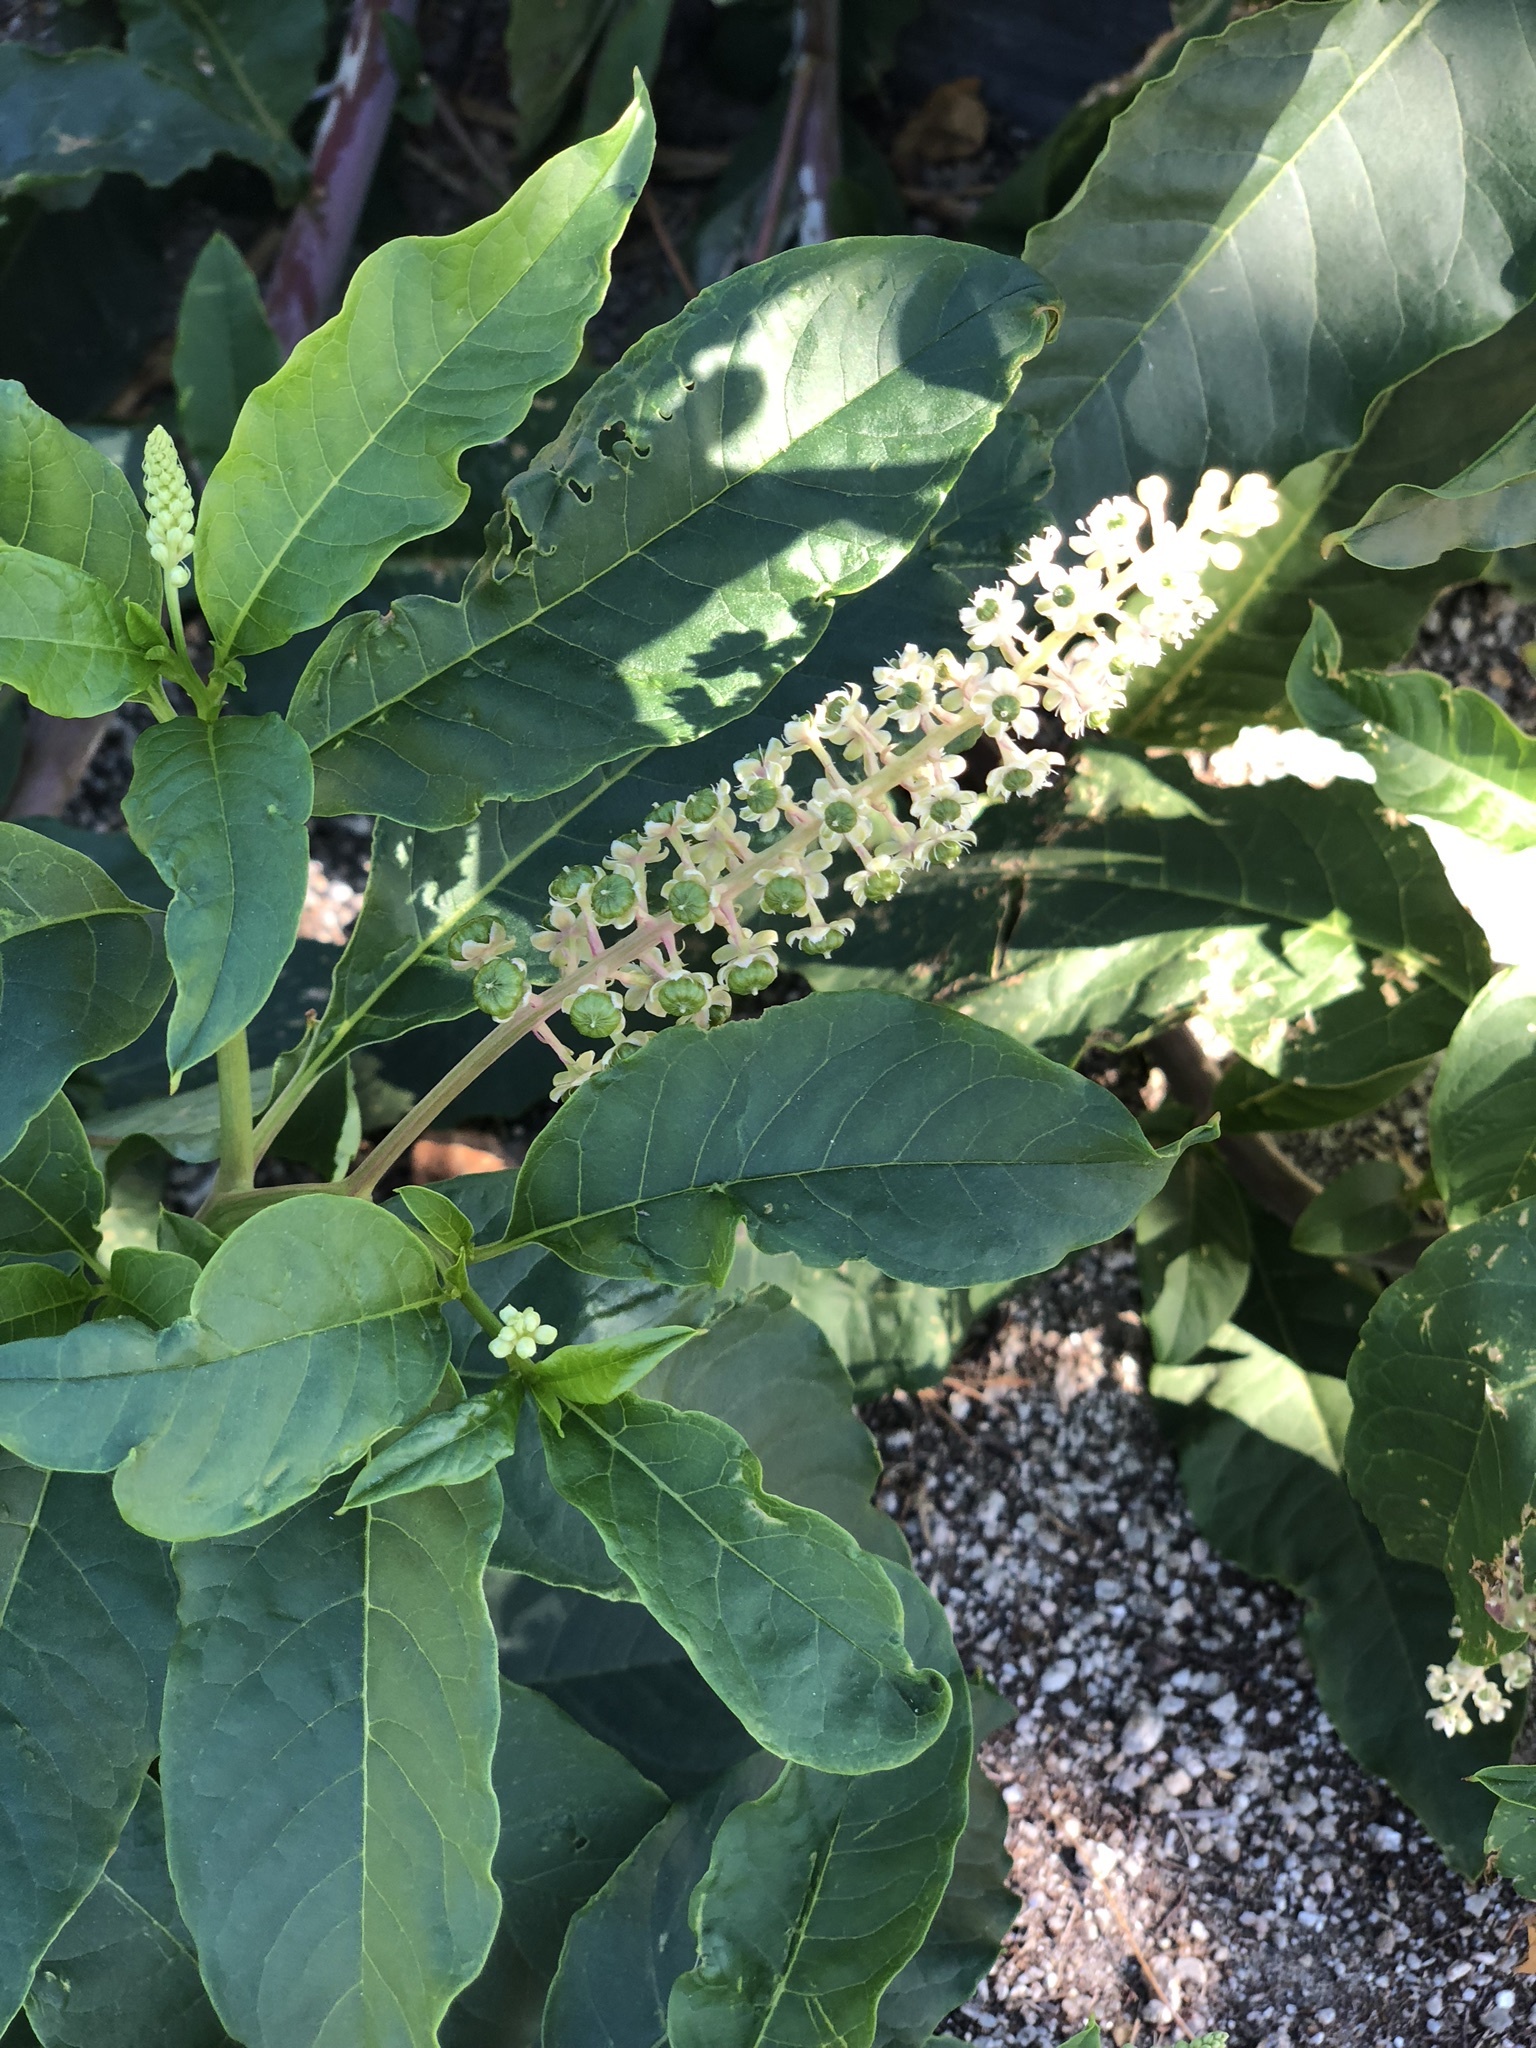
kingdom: Plantae
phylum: Tracheophyta
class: Magnoliopsida
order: Caryophyllales
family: Phytolaccaceae
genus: Phytolacca
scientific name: Phytolacca americana
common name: American pokeweed
